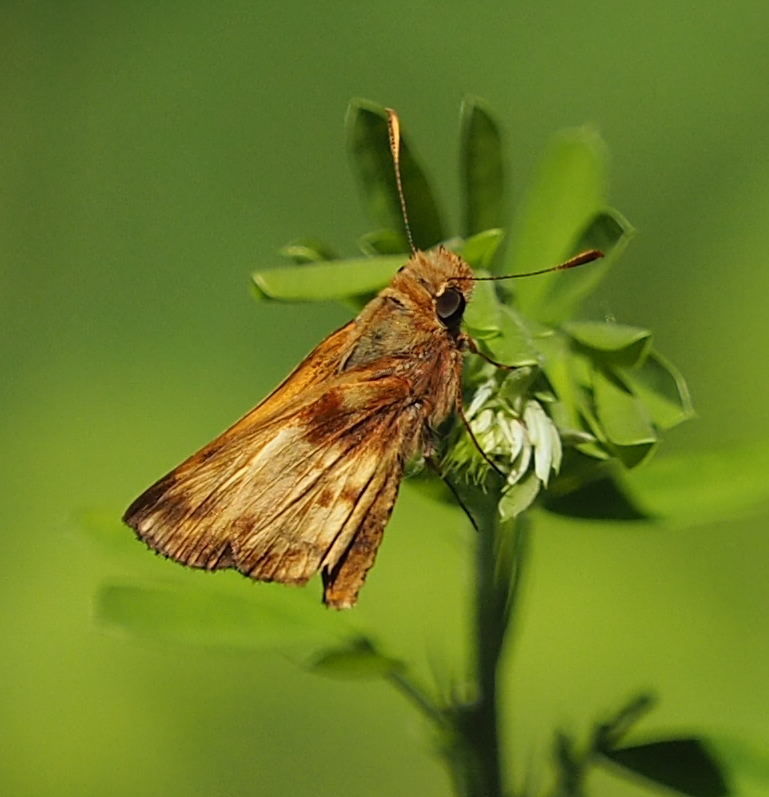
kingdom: Animalia
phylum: Arthropoda
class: Insecta
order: Lepidoptera
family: Hesperiidae
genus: Lon
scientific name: Lon zabulon
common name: Zabulon skipper
